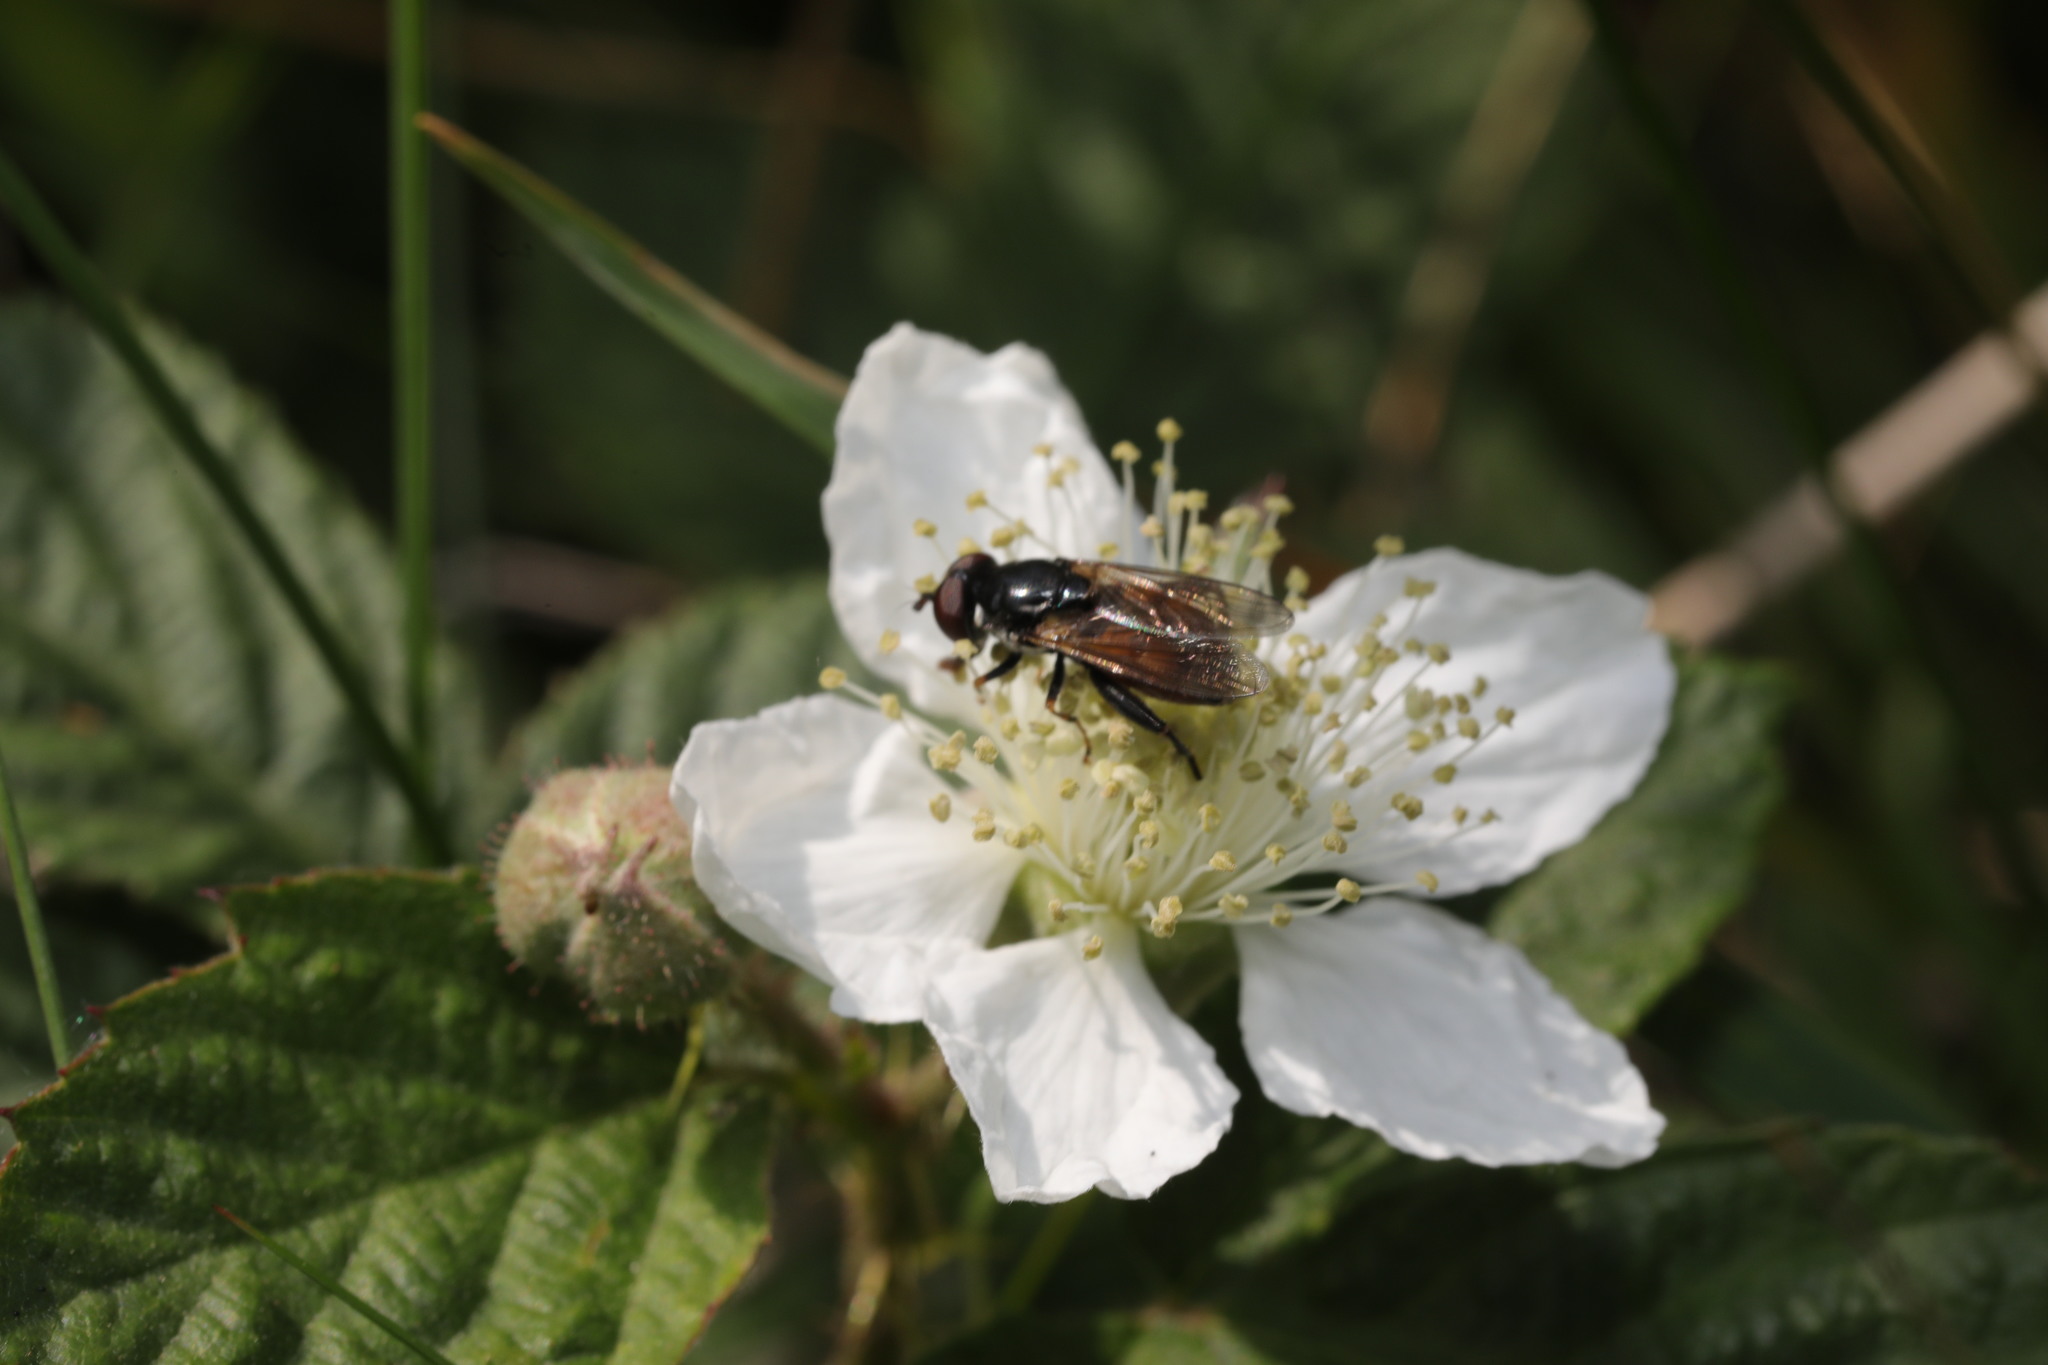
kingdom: Animalia
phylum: Arthropoda
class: Insecta
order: Diptera
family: Syrphidae
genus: Tropidia
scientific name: Tropidia scita
